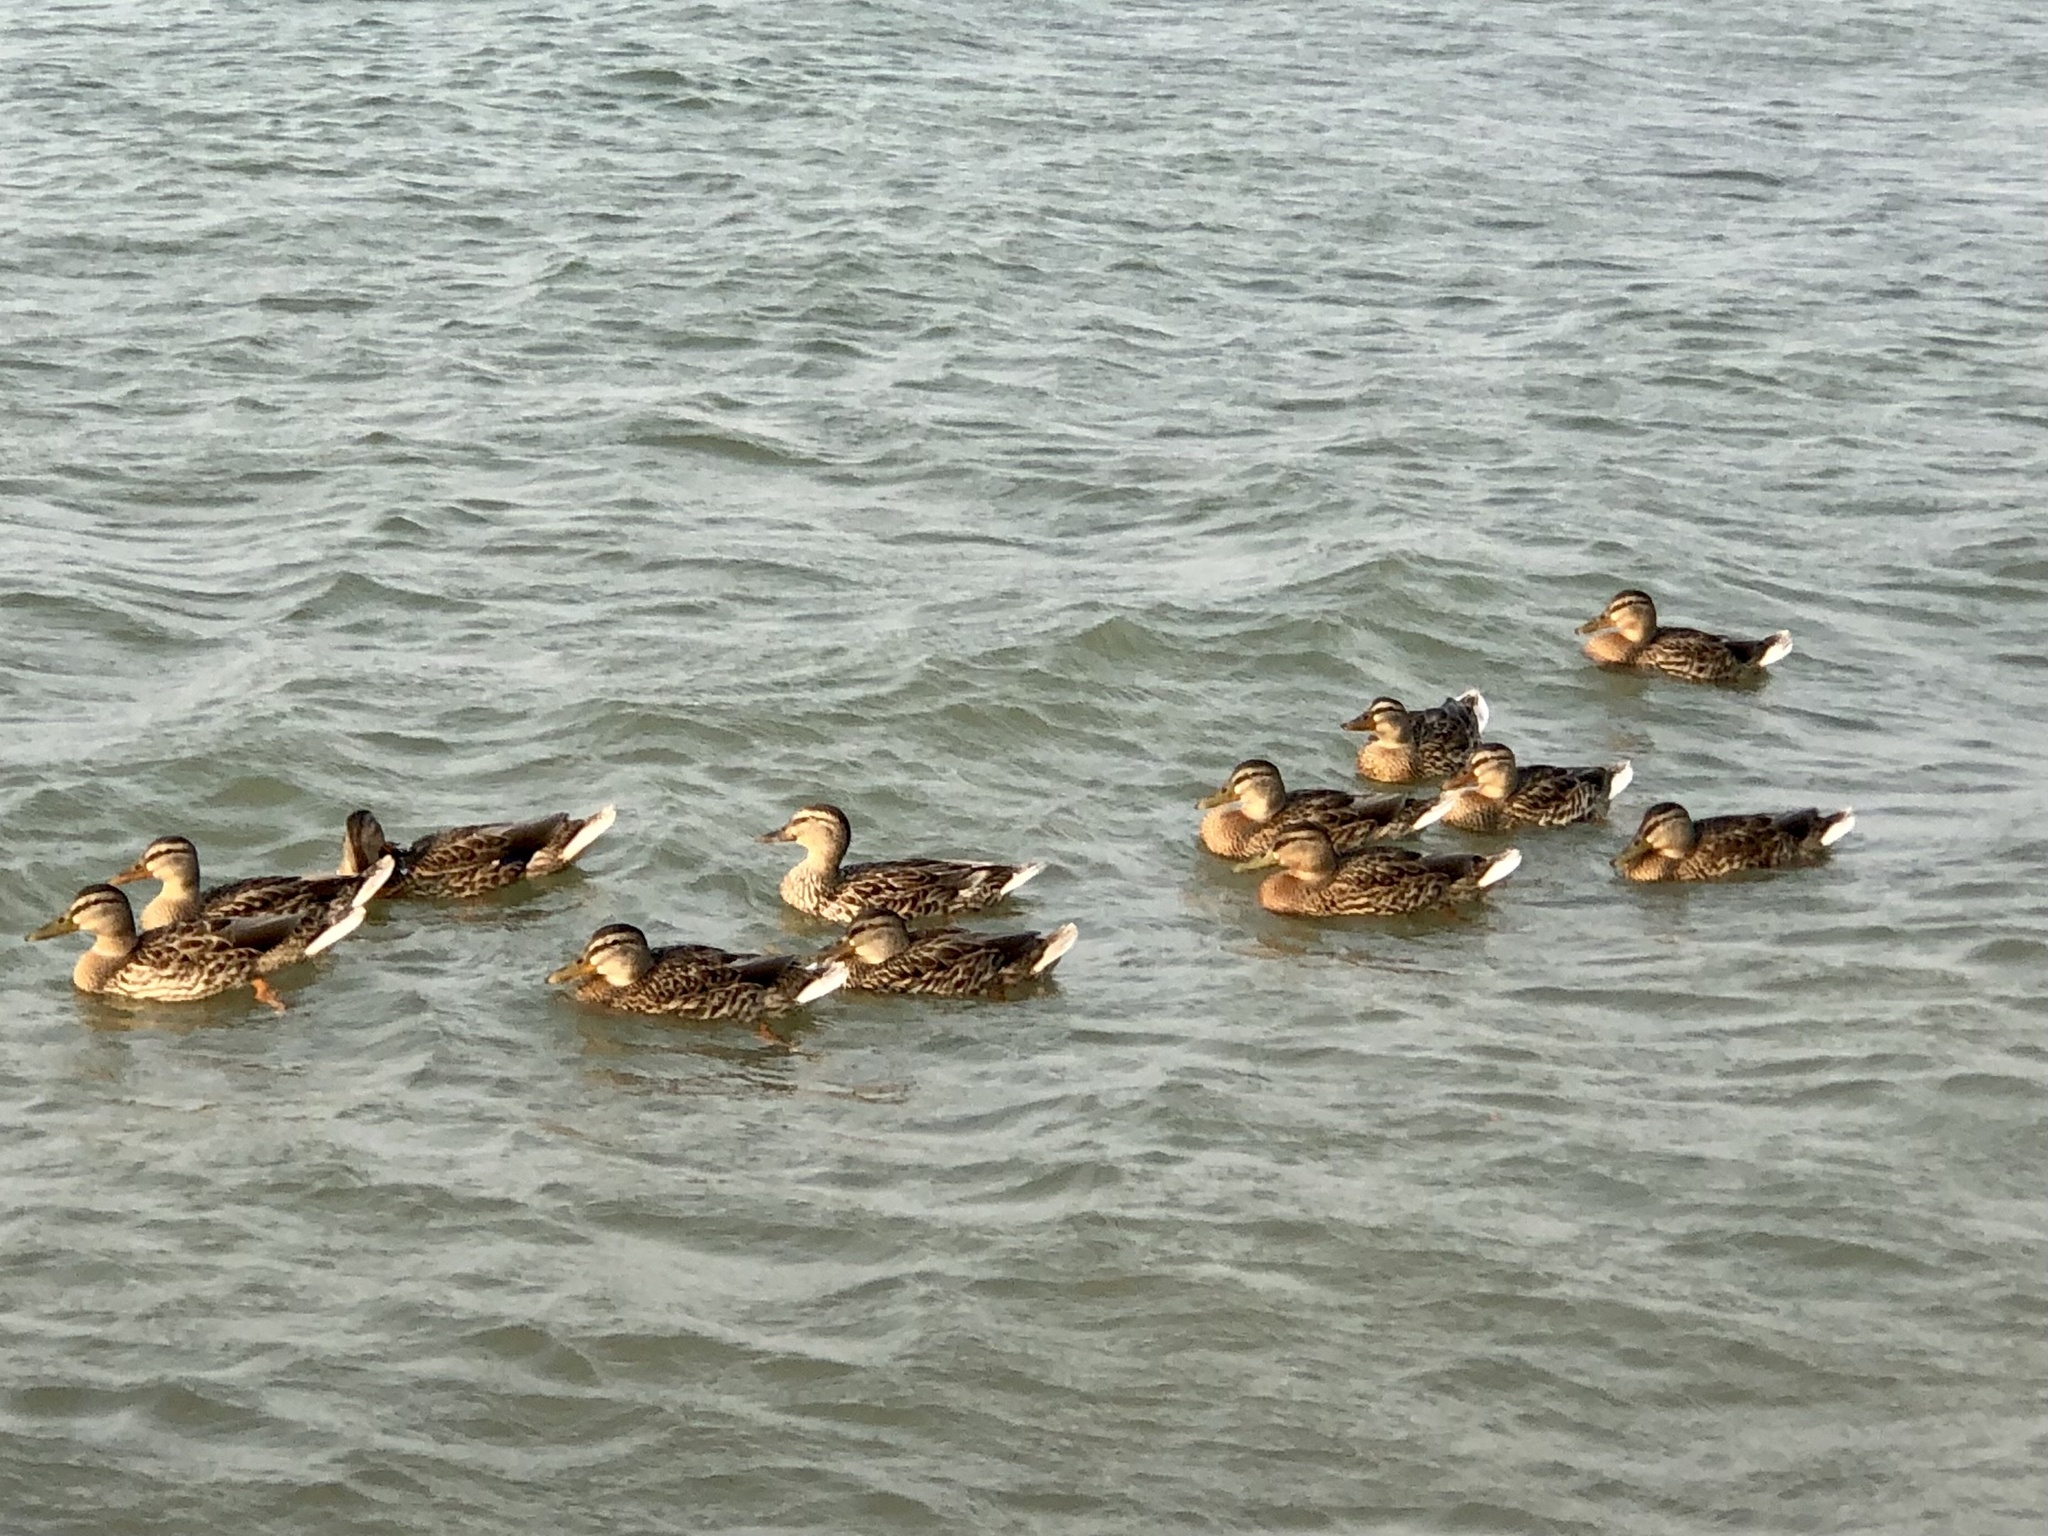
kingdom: Animalia
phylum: Chordata
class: Aves
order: Anseriformes
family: Anatidae
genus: Anas
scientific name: Anas platyrhynchos
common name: Mallard
